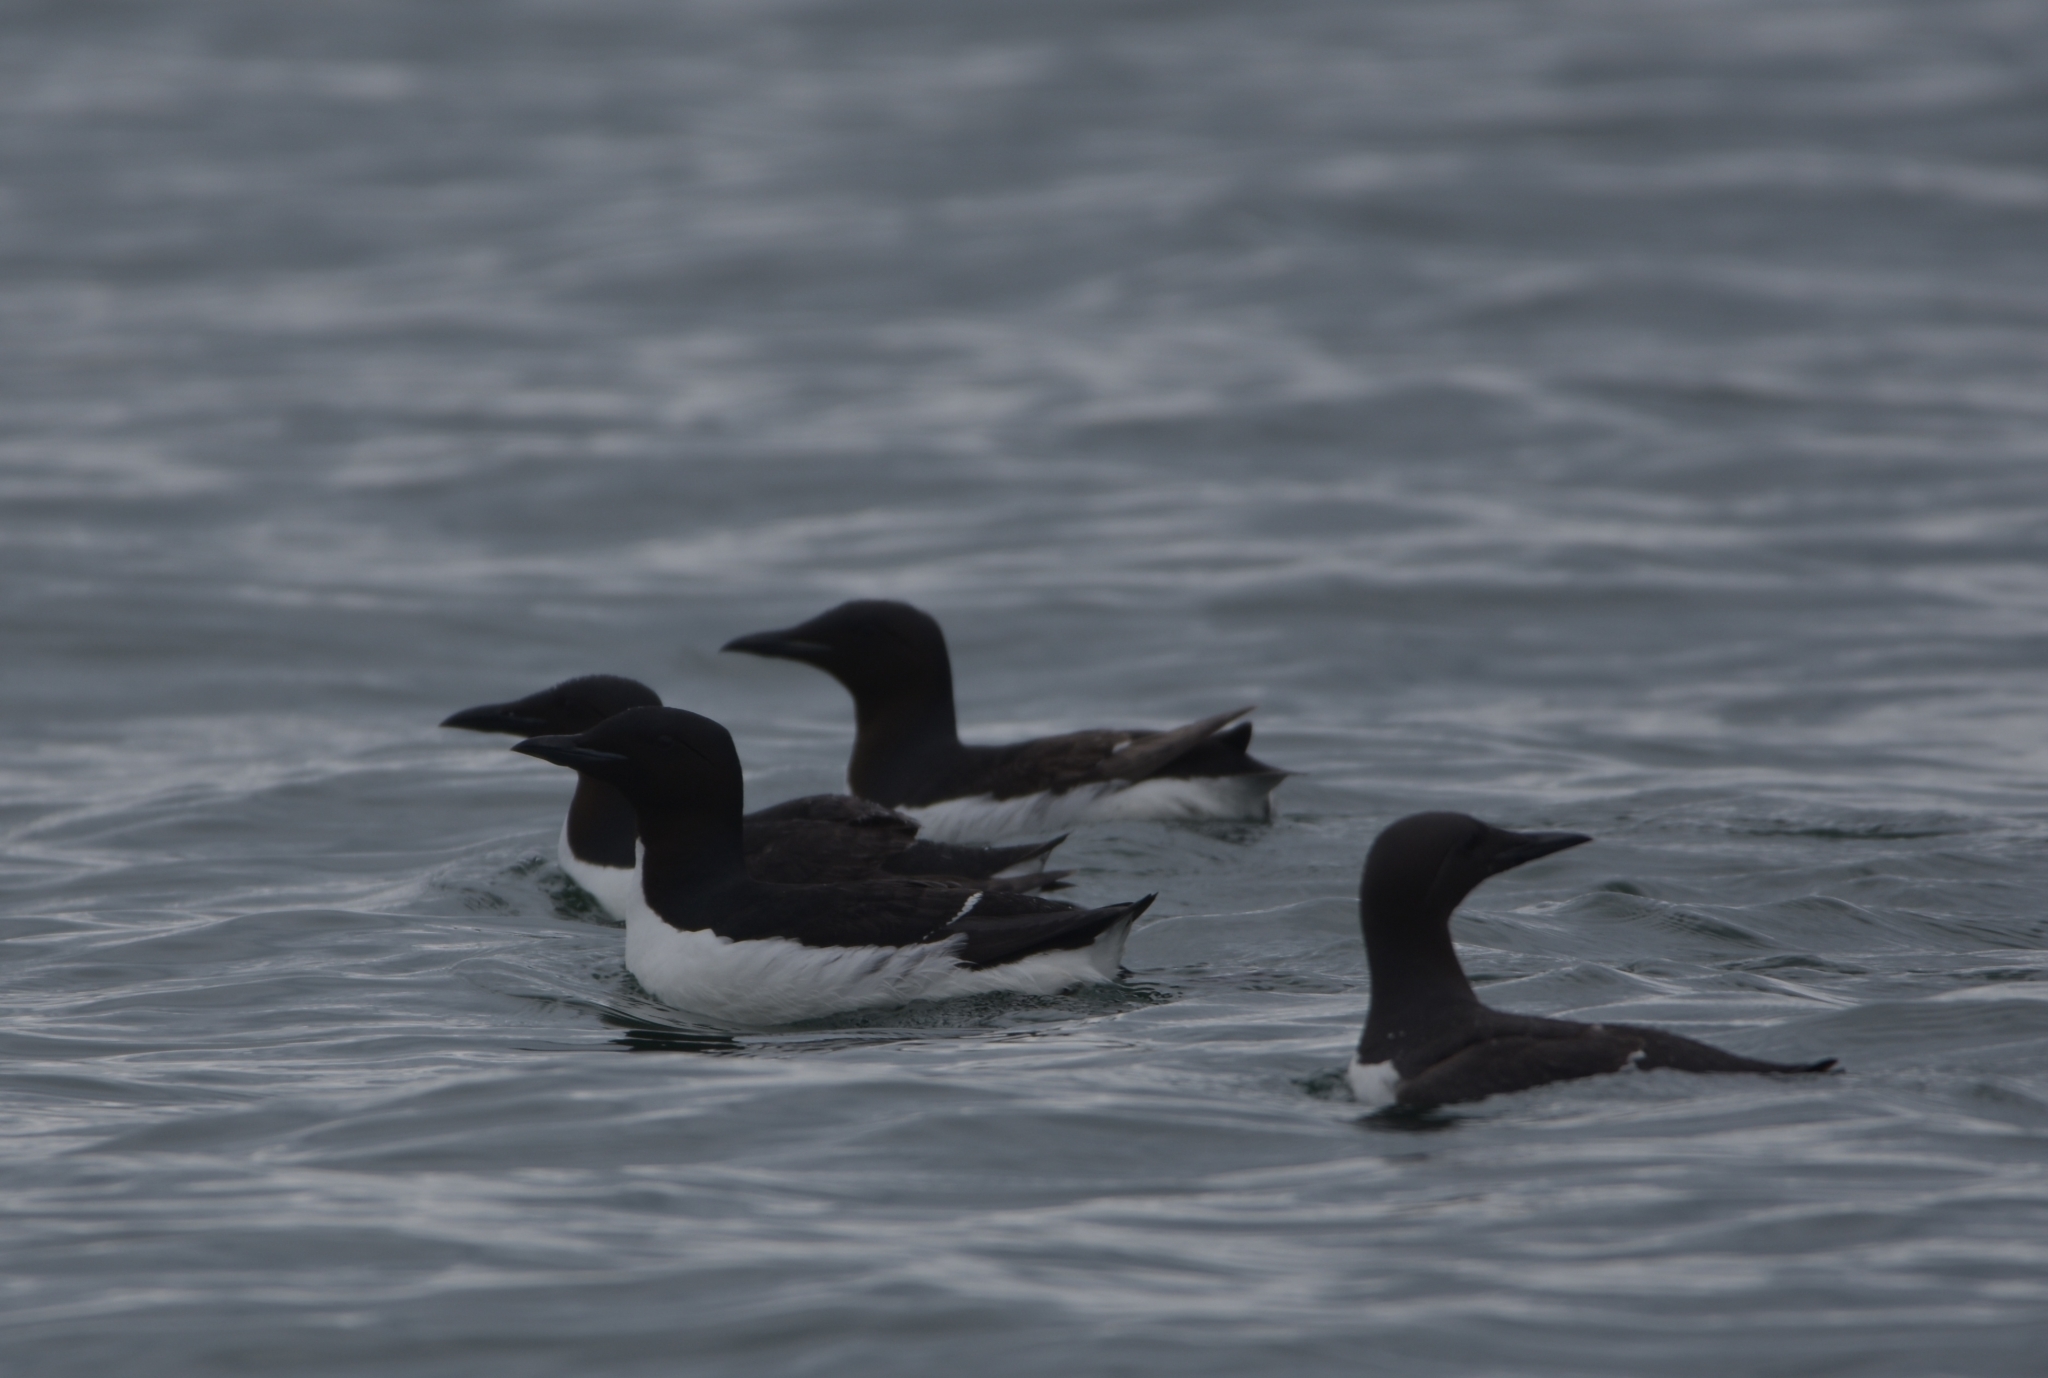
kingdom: Animalia
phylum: Chordata
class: Aves
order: Charadriiformes
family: Alcidae
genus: Uria
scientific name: Uria aalge
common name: Common murre
